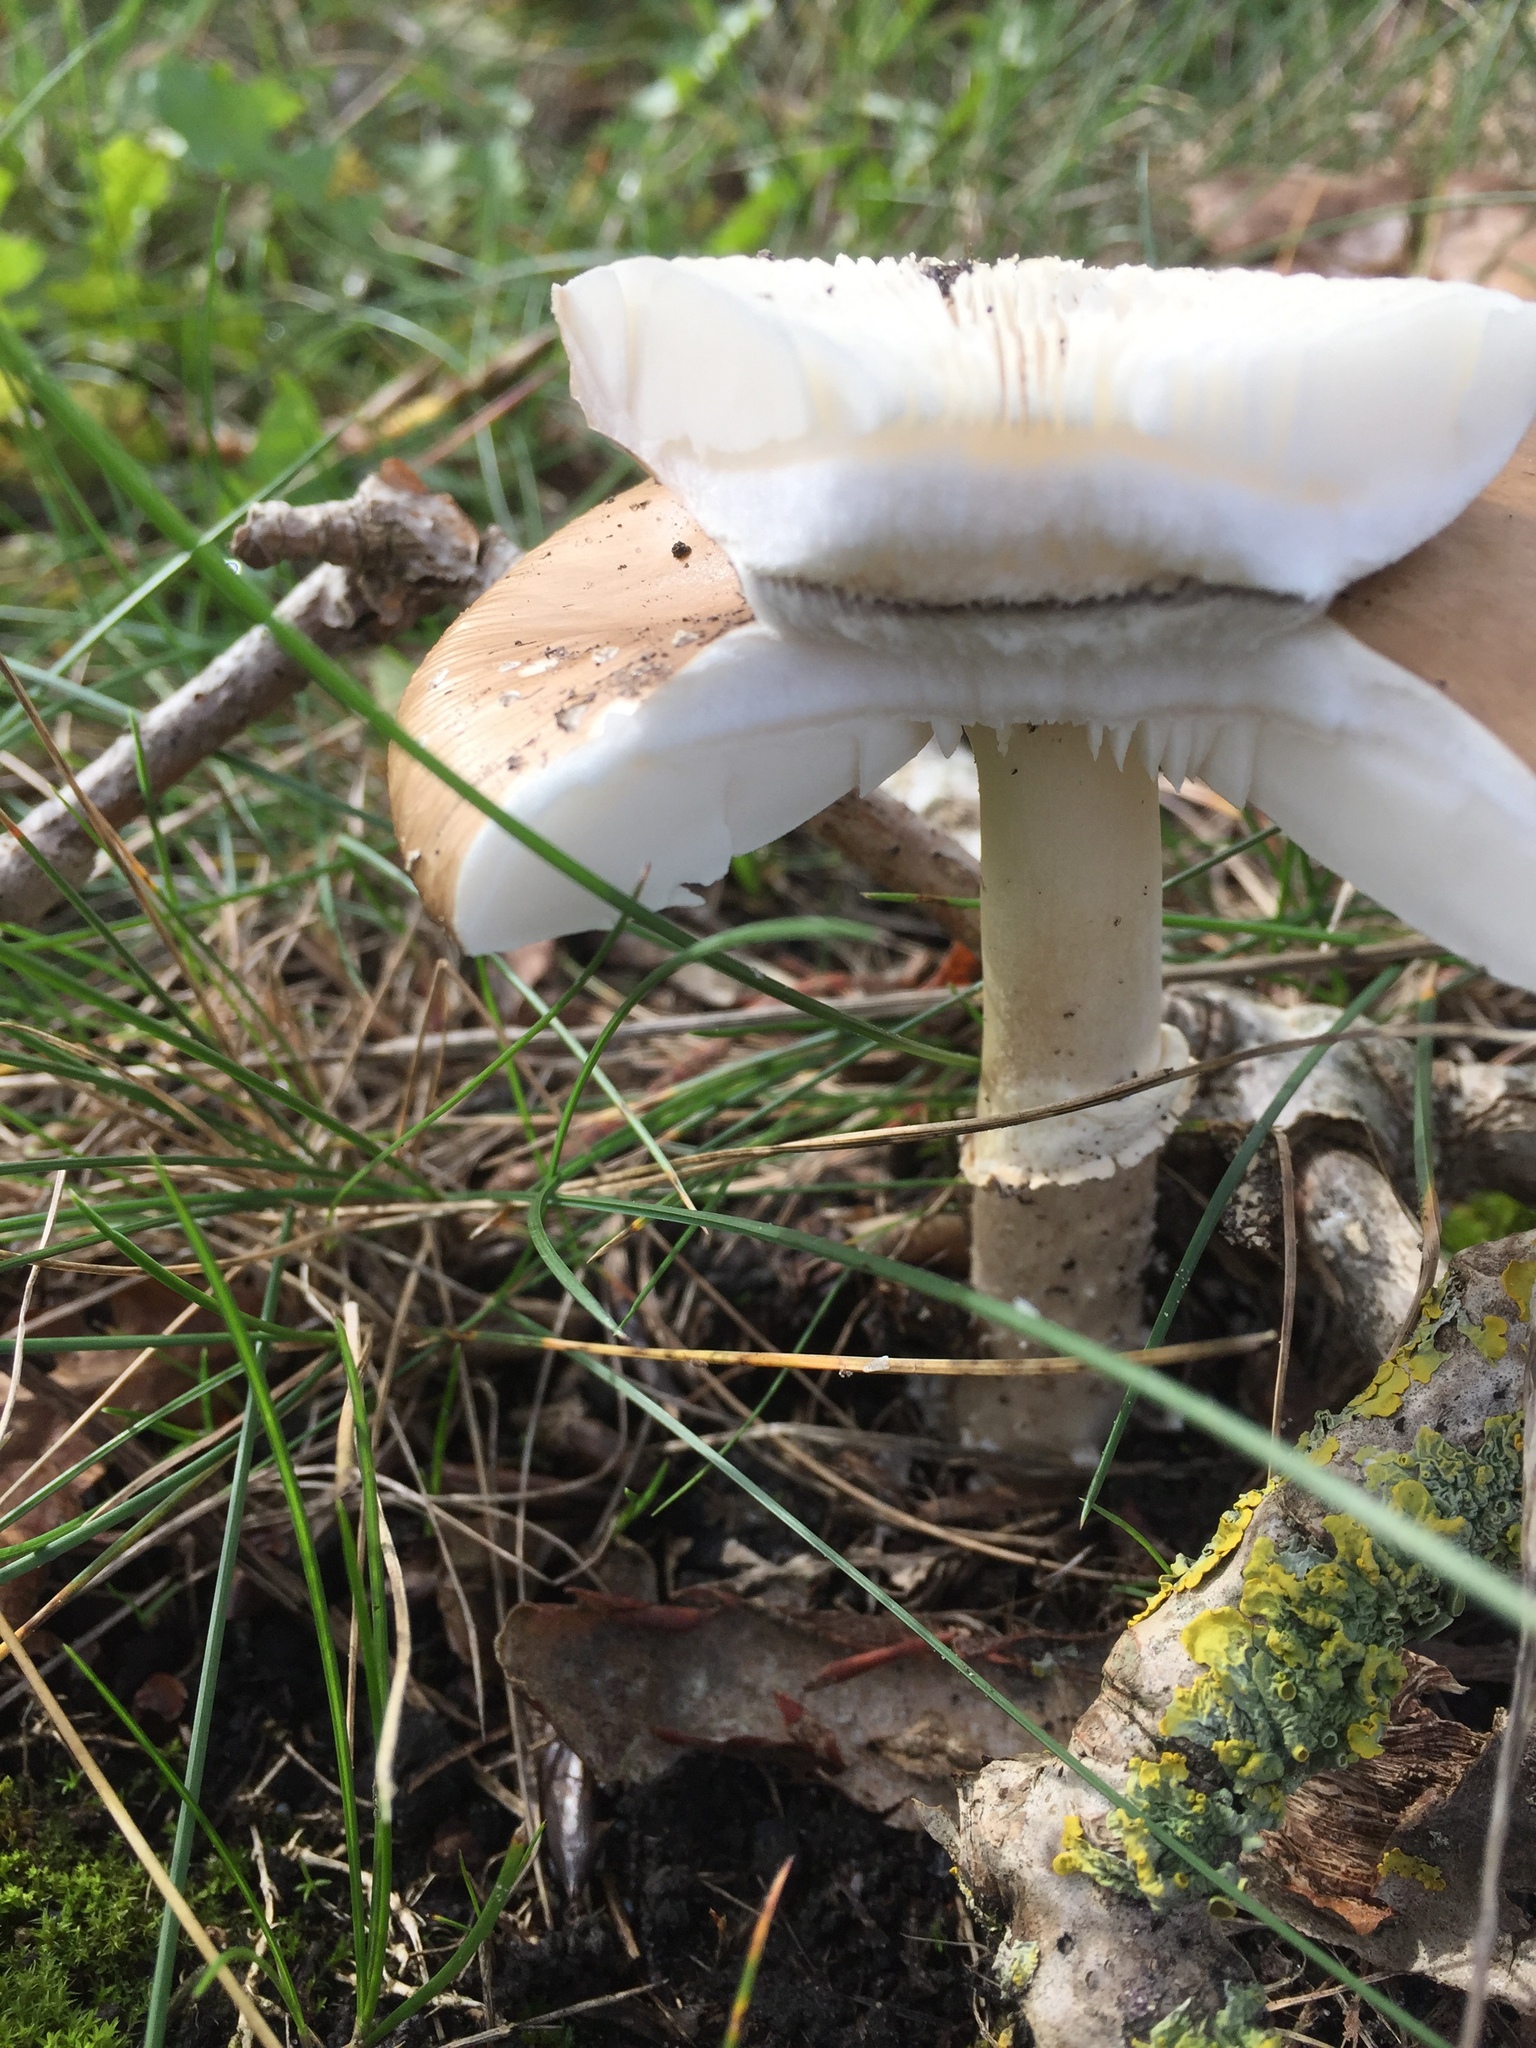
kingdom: Fungi
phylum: Basidiomycota
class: Agaricomycetes
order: Agaricales
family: Amanitaceae
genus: Amanita
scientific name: Amanita rubescens
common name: Blusher
